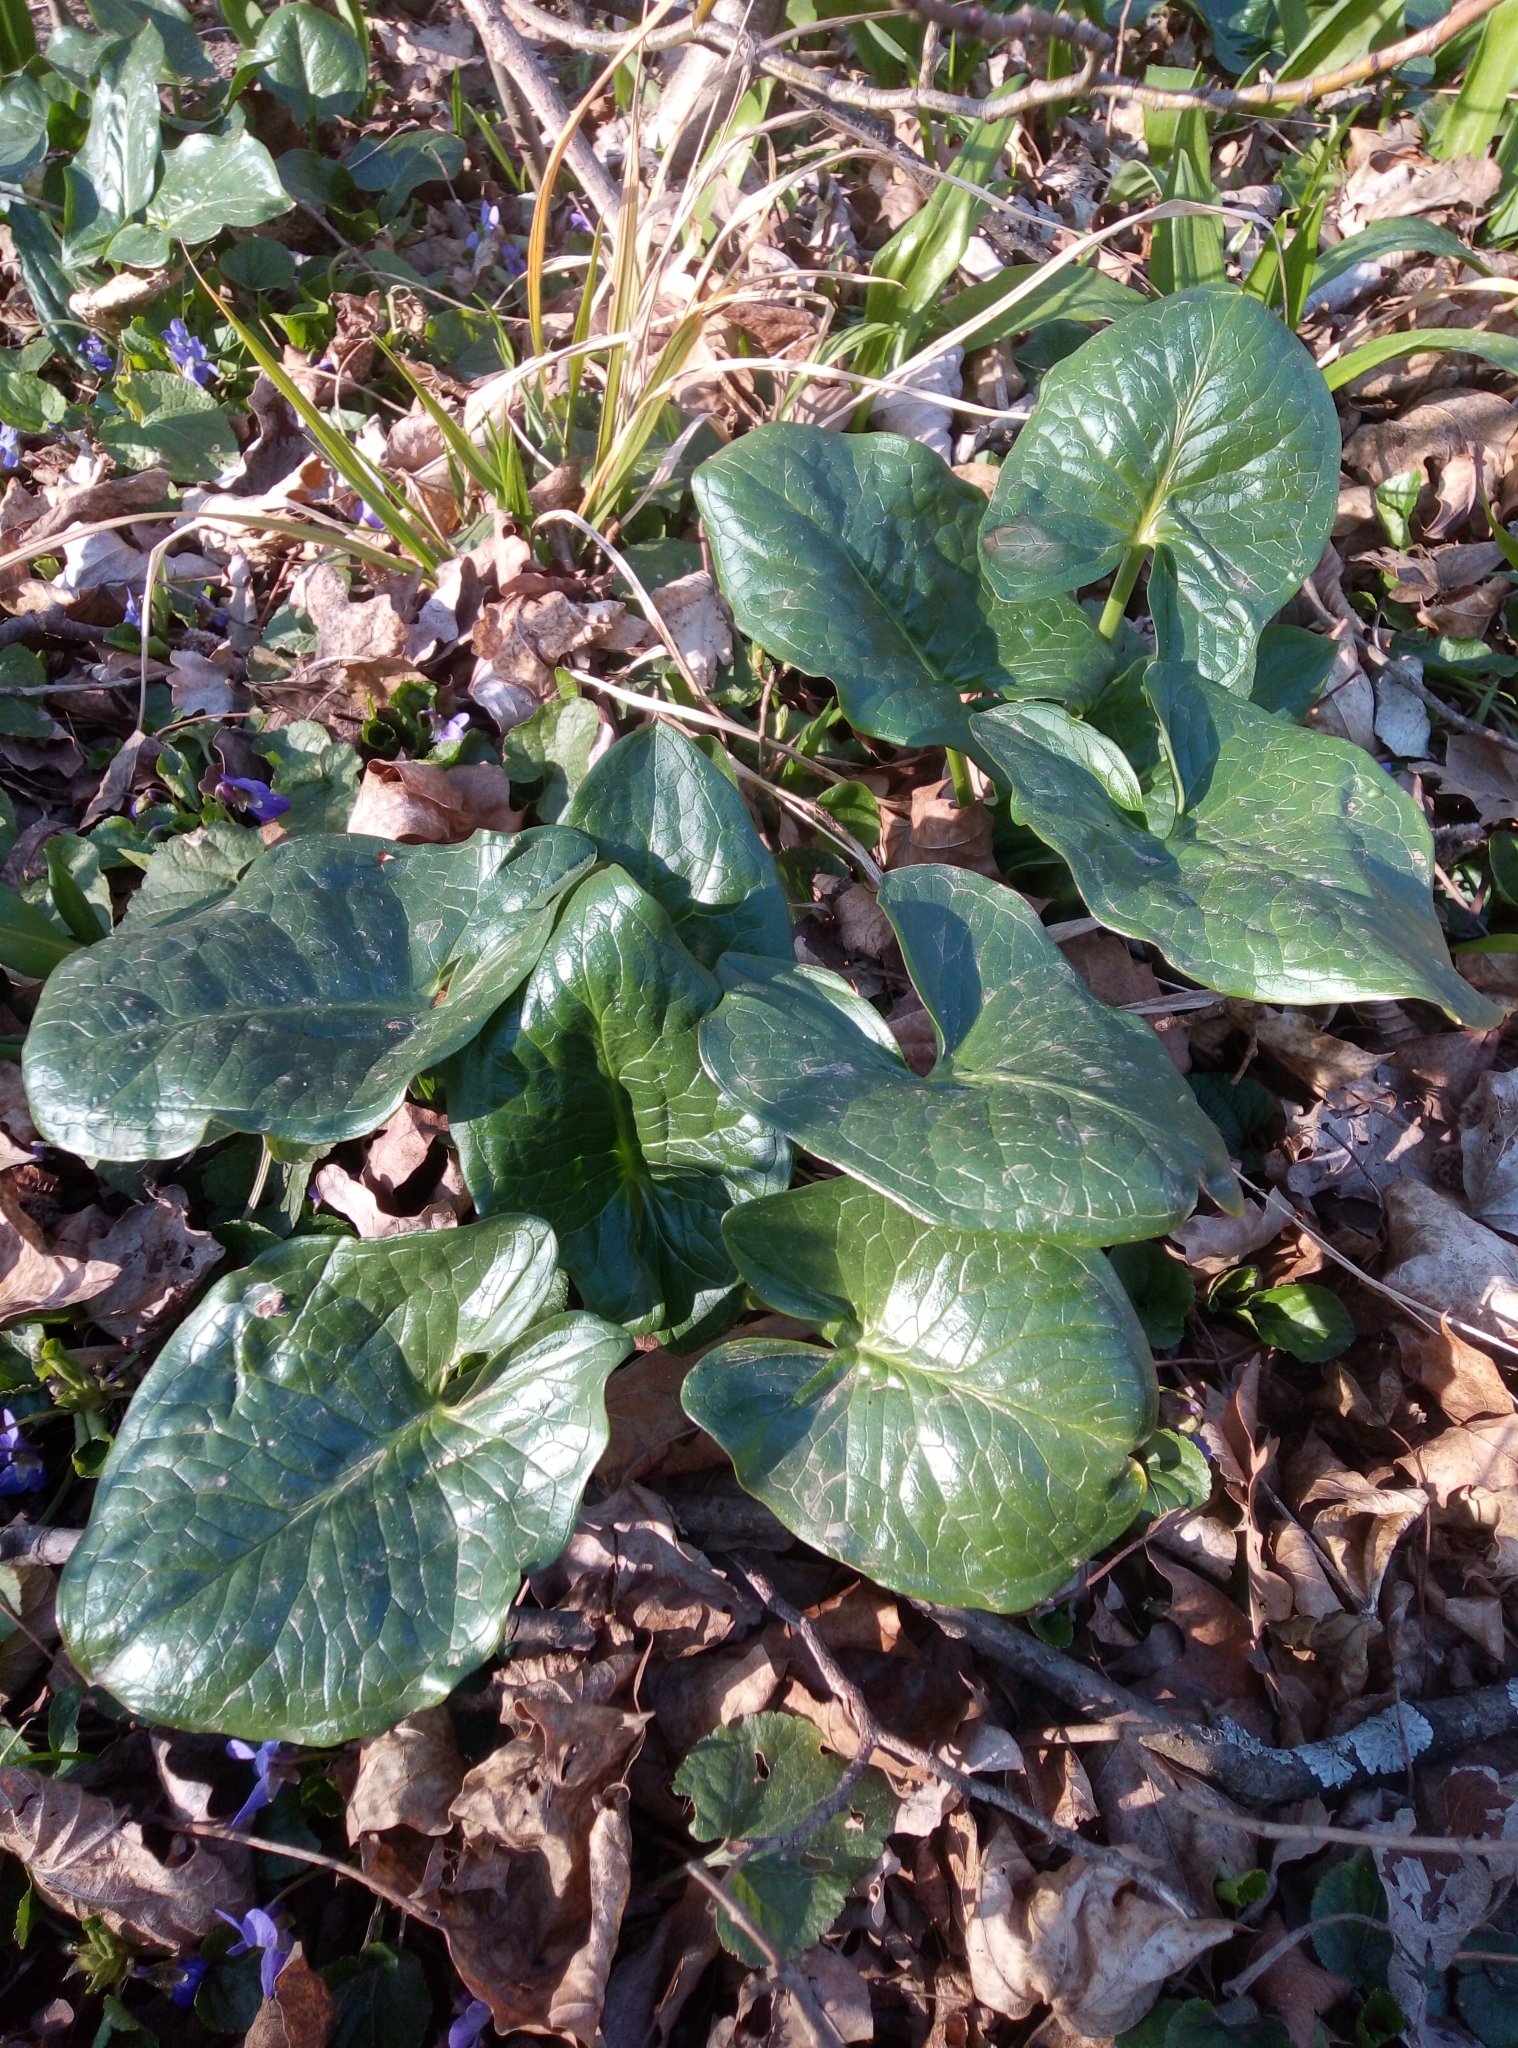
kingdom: Plantae
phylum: Tracheophyta
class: Liliopsida
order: Alismatales
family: Araceae
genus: Arum
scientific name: Arum cylindraceum
